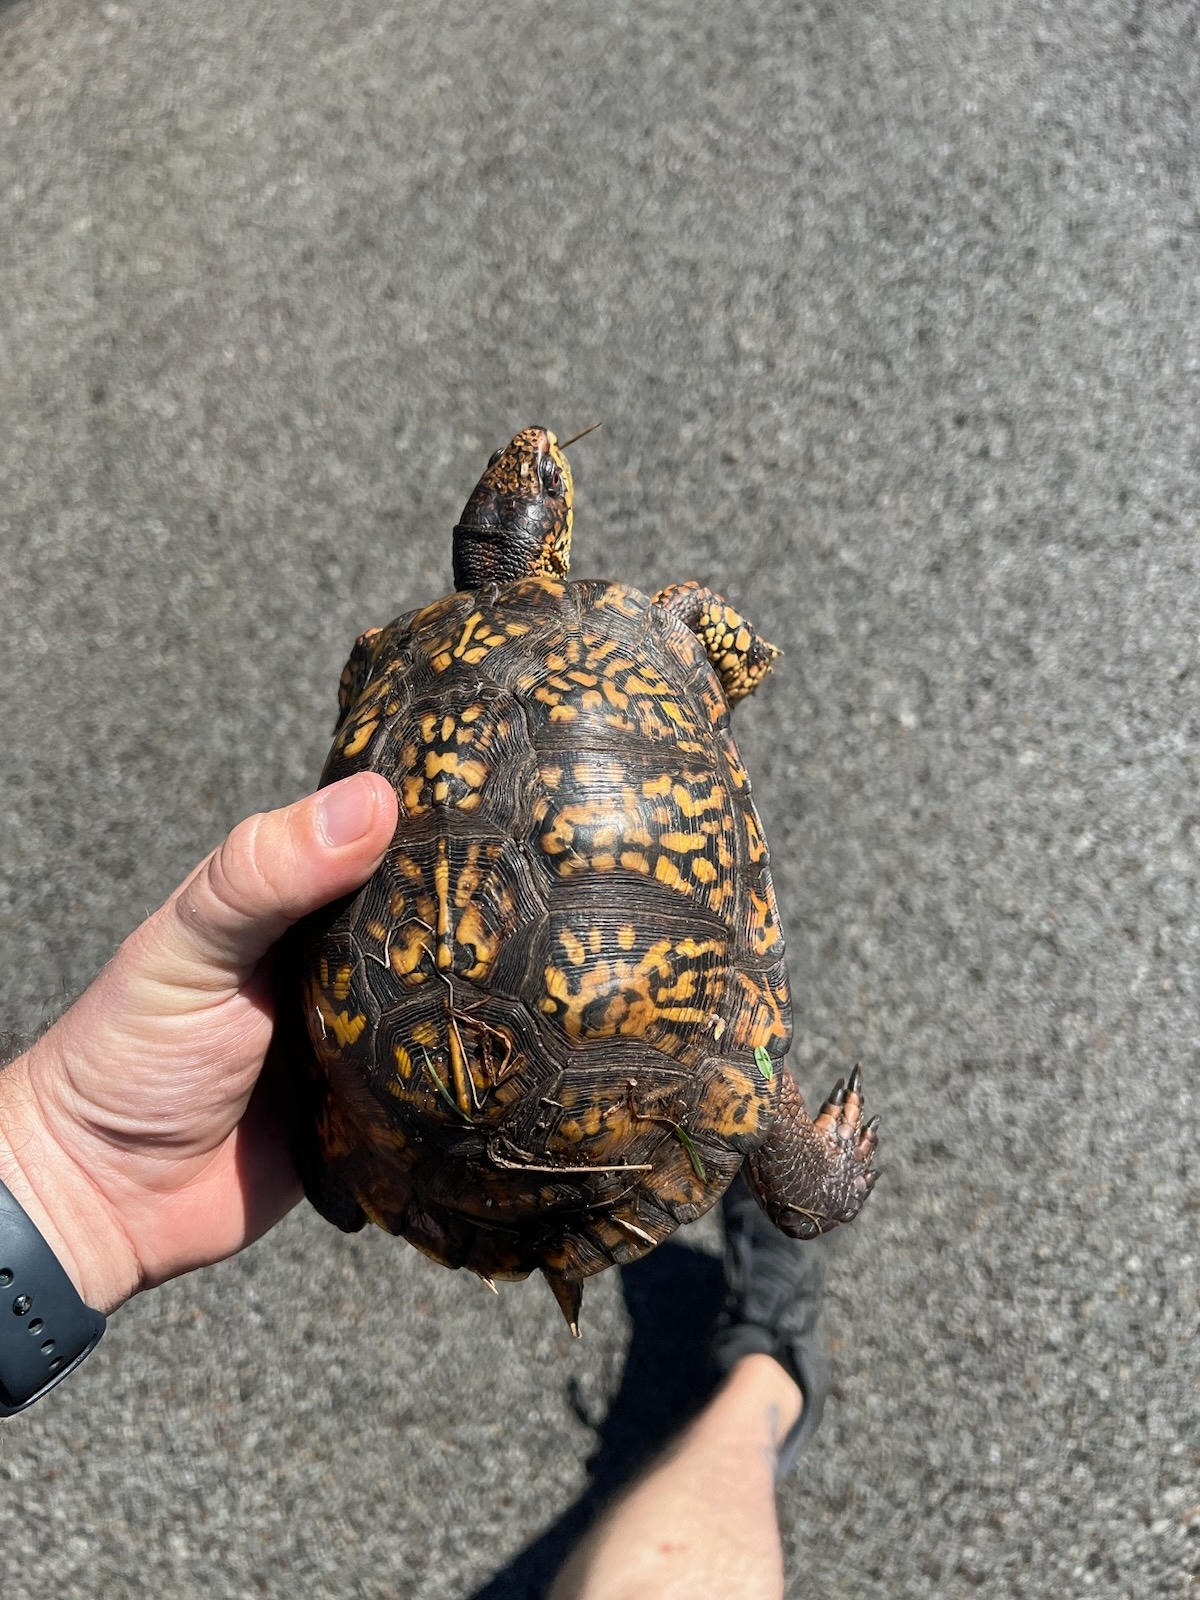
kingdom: Animalia
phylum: Chordata
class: Testudines
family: Emydidae
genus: Terrapene
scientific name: Terrapene carolina
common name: Common box turtle
